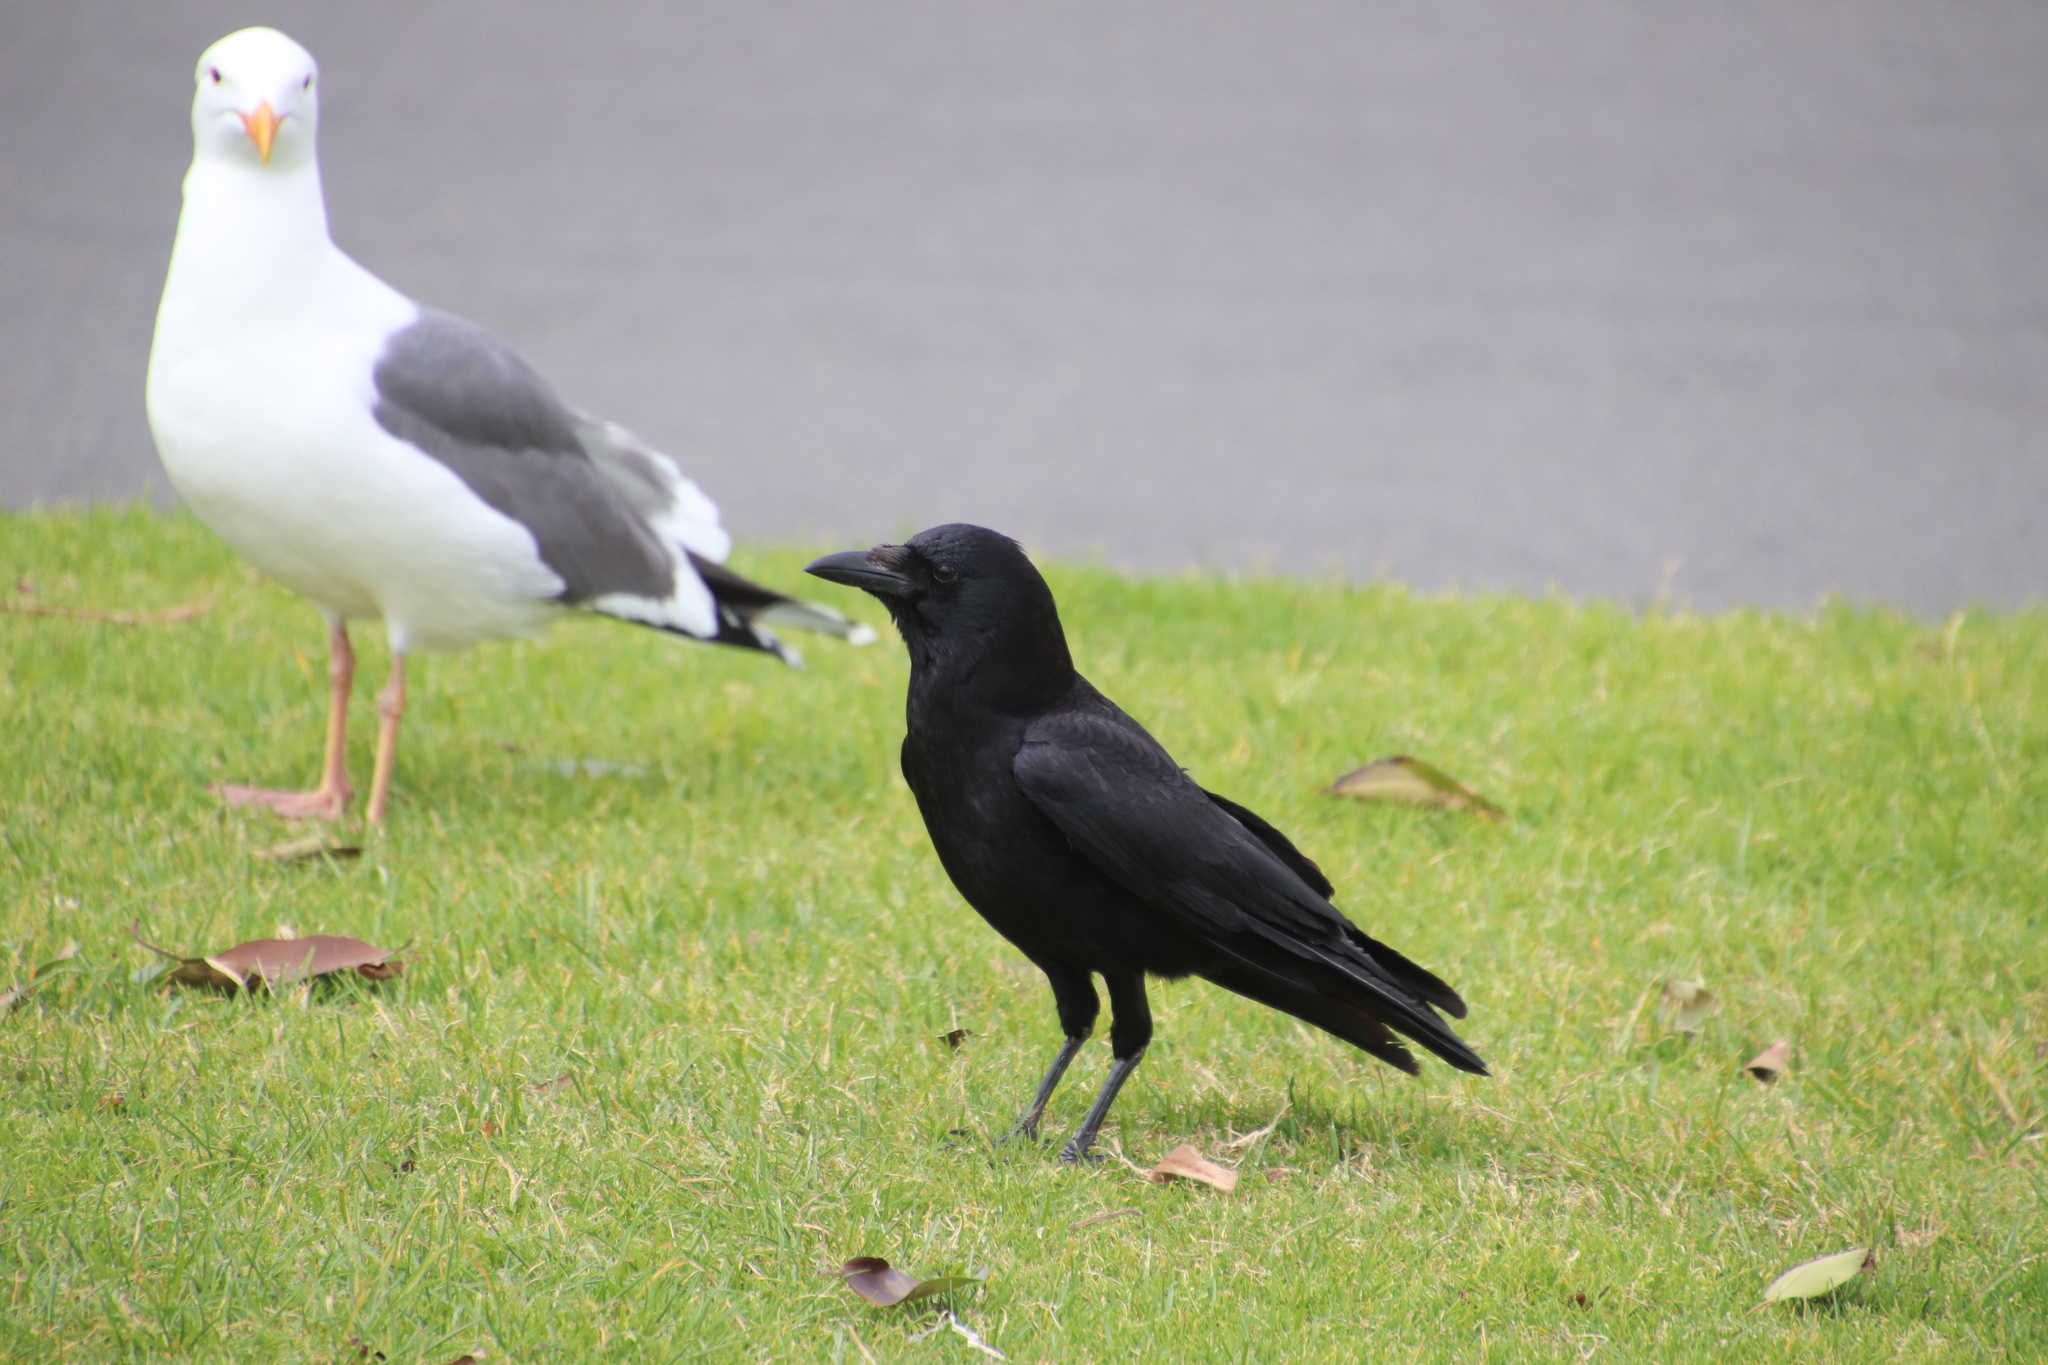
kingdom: Animalia
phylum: Chordata
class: Aves
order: Passeriformes
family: Corvidae
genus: Corvus
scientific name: Corvus brachyrhynchos
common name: American crow
